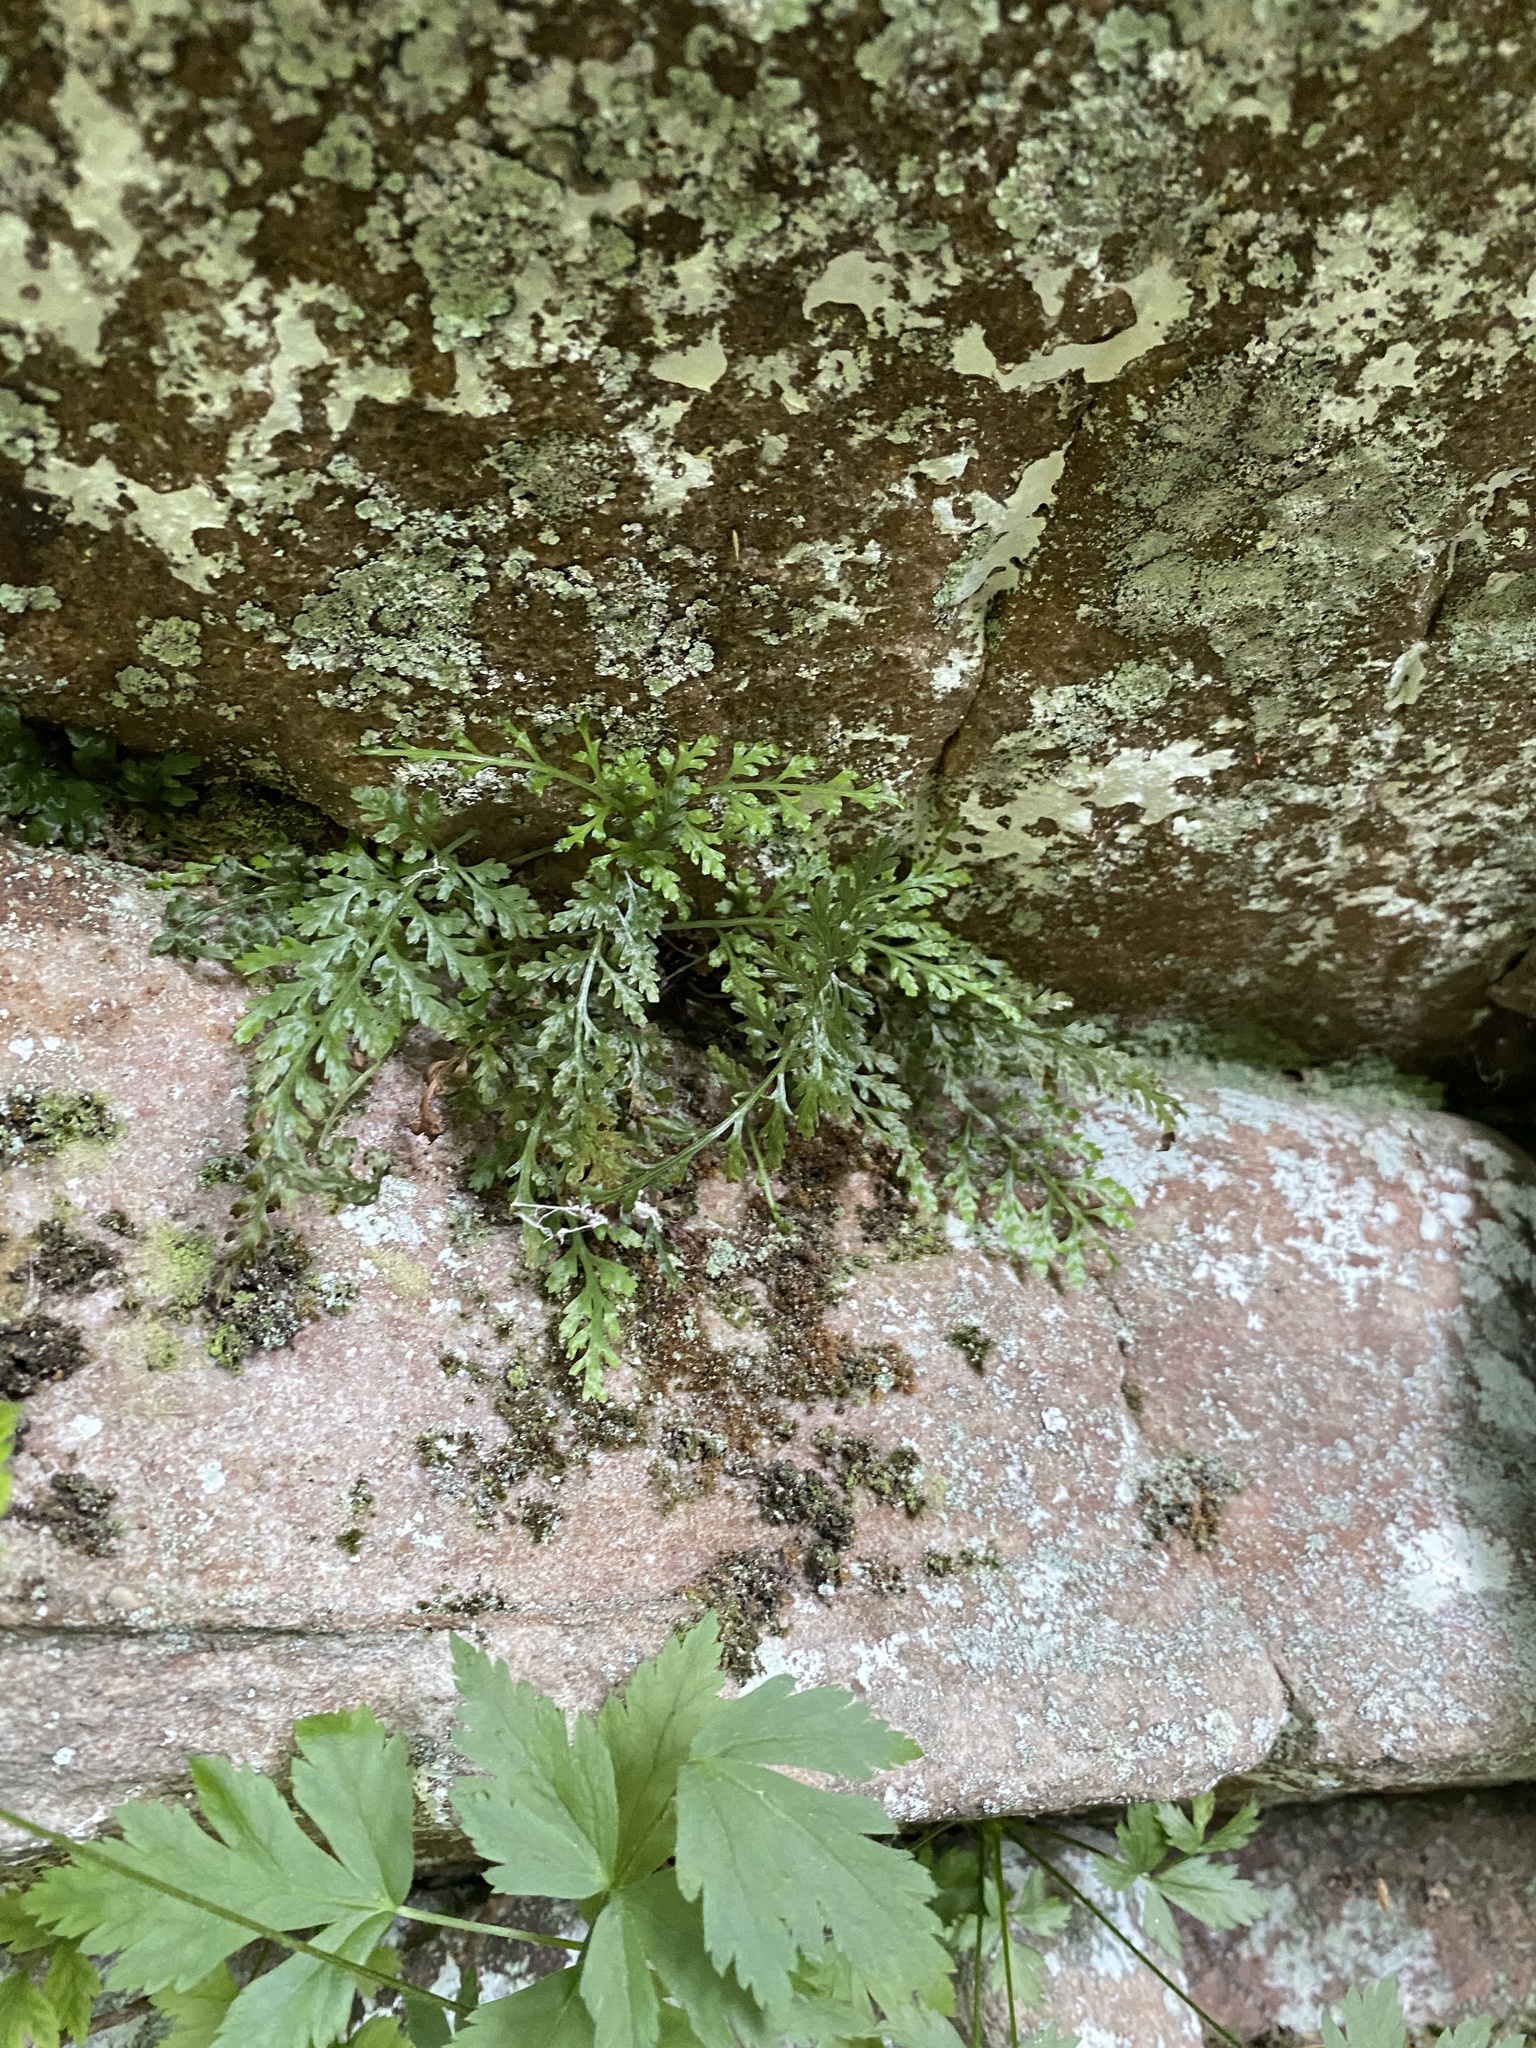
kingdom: Plantae
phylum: Tracheophyta
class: Polypodiopsida
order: Polypodiales
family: Aspleniaceae
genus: Asplenium
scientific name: Asplenium montanum
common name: Mountain spleenwort
